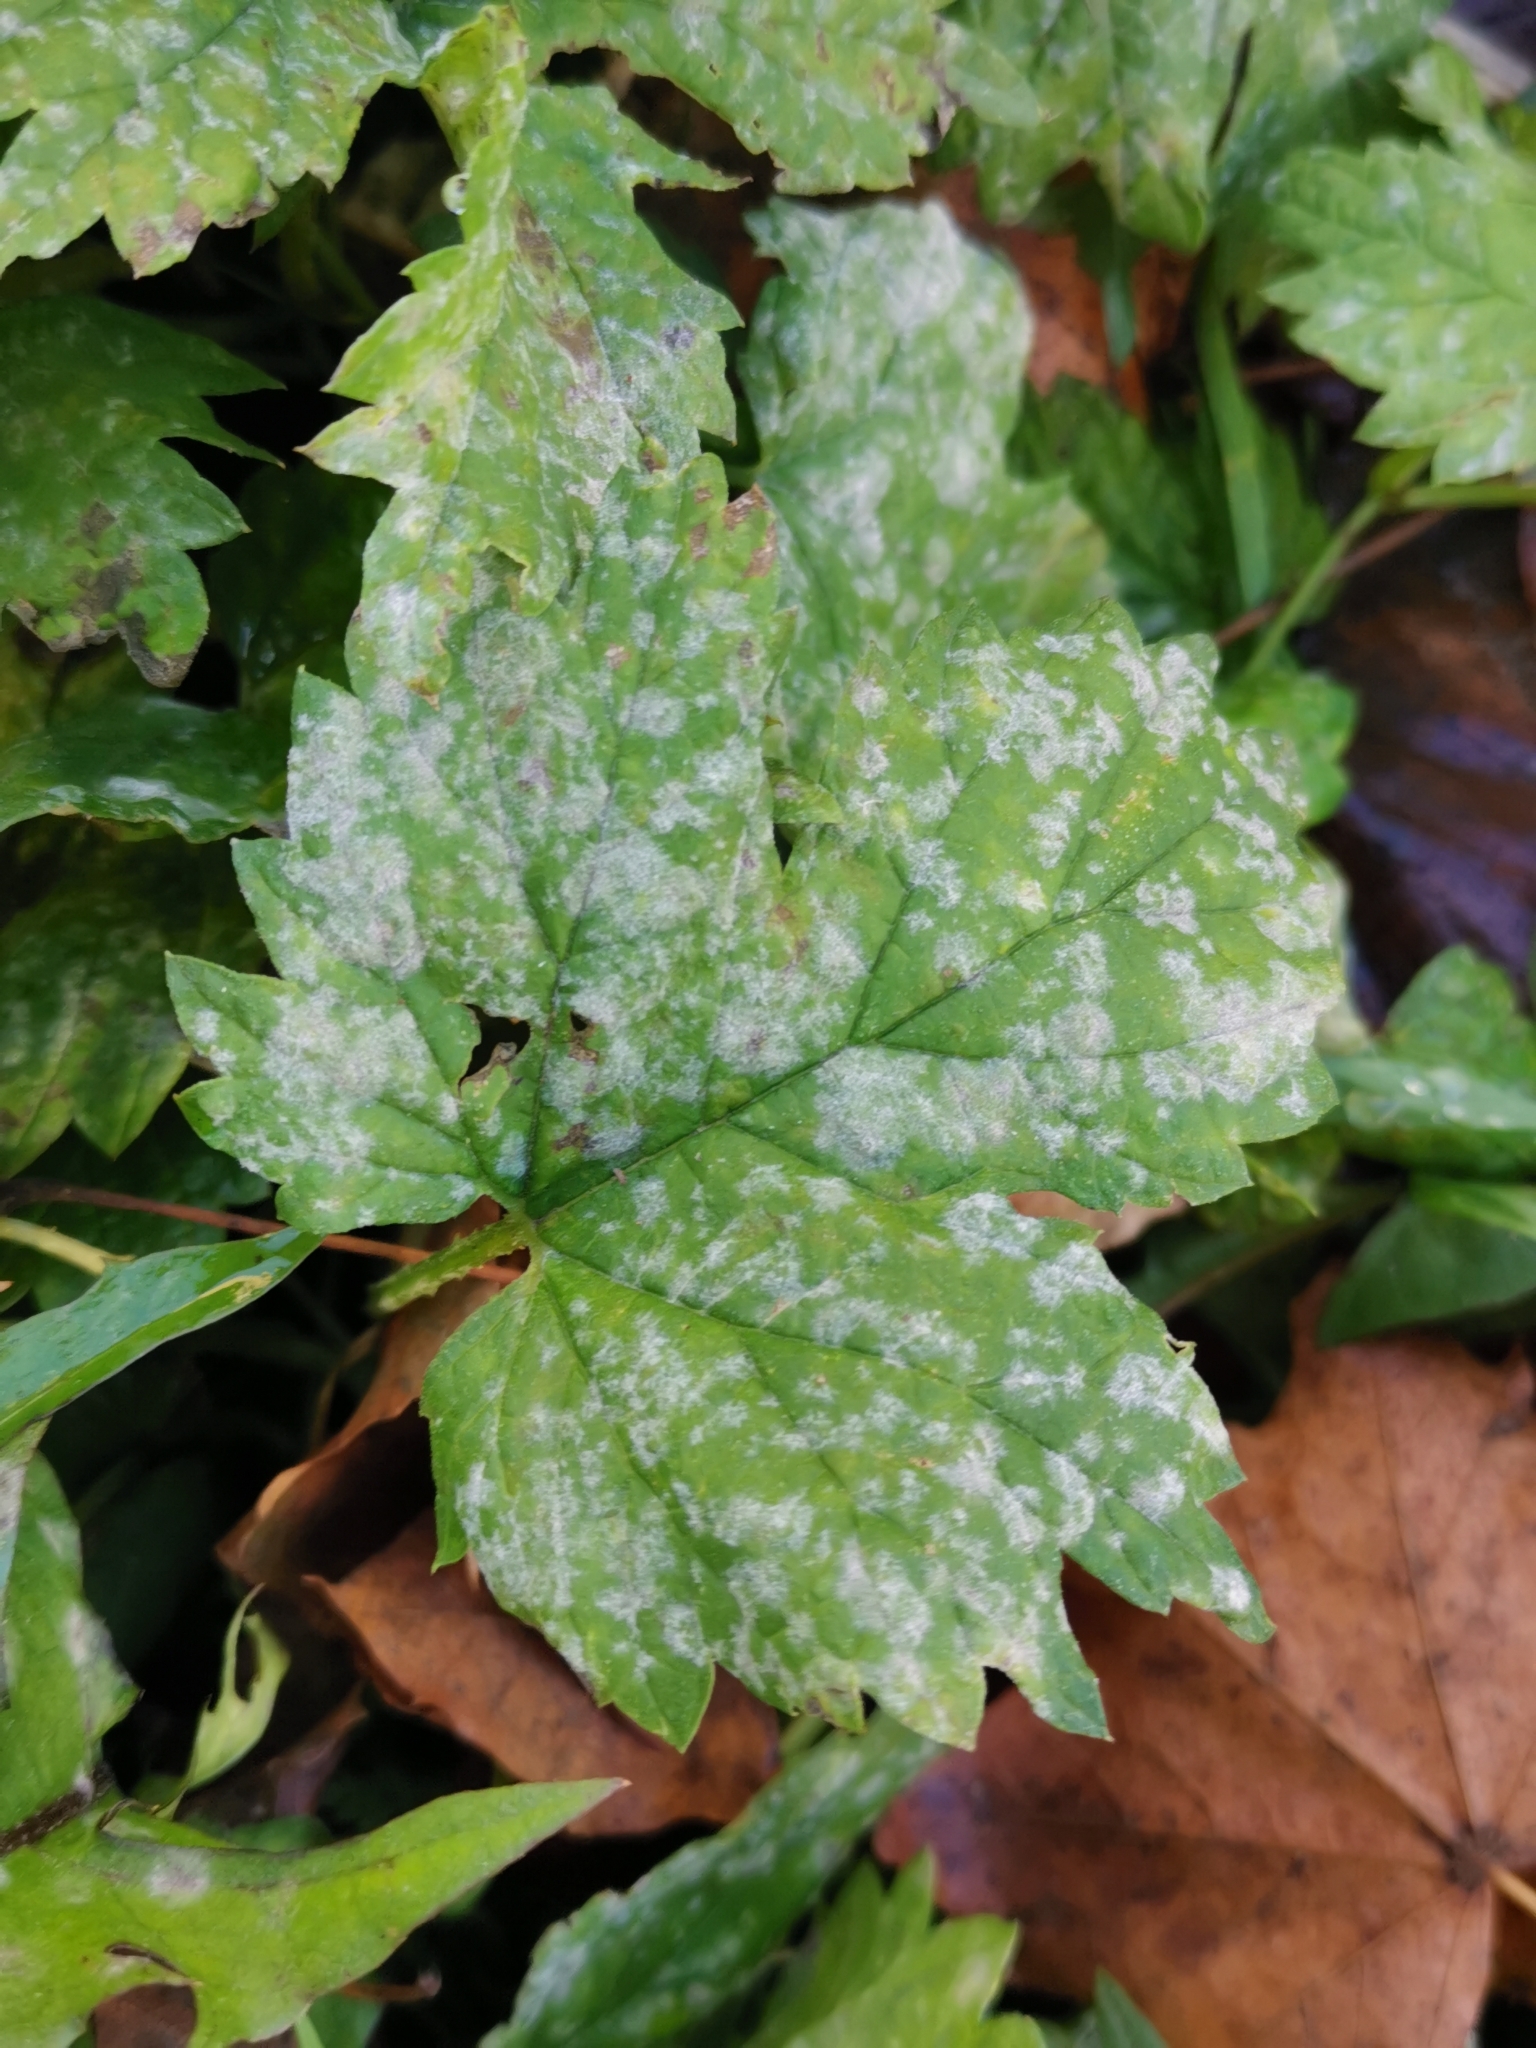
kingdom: Fungi
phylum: Ascomycota
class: Leotiomycetes
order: Helotiales
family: Erysiphaceae
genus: Podosphaera
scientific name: Podosphaera macularis
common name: Powdery mildew
